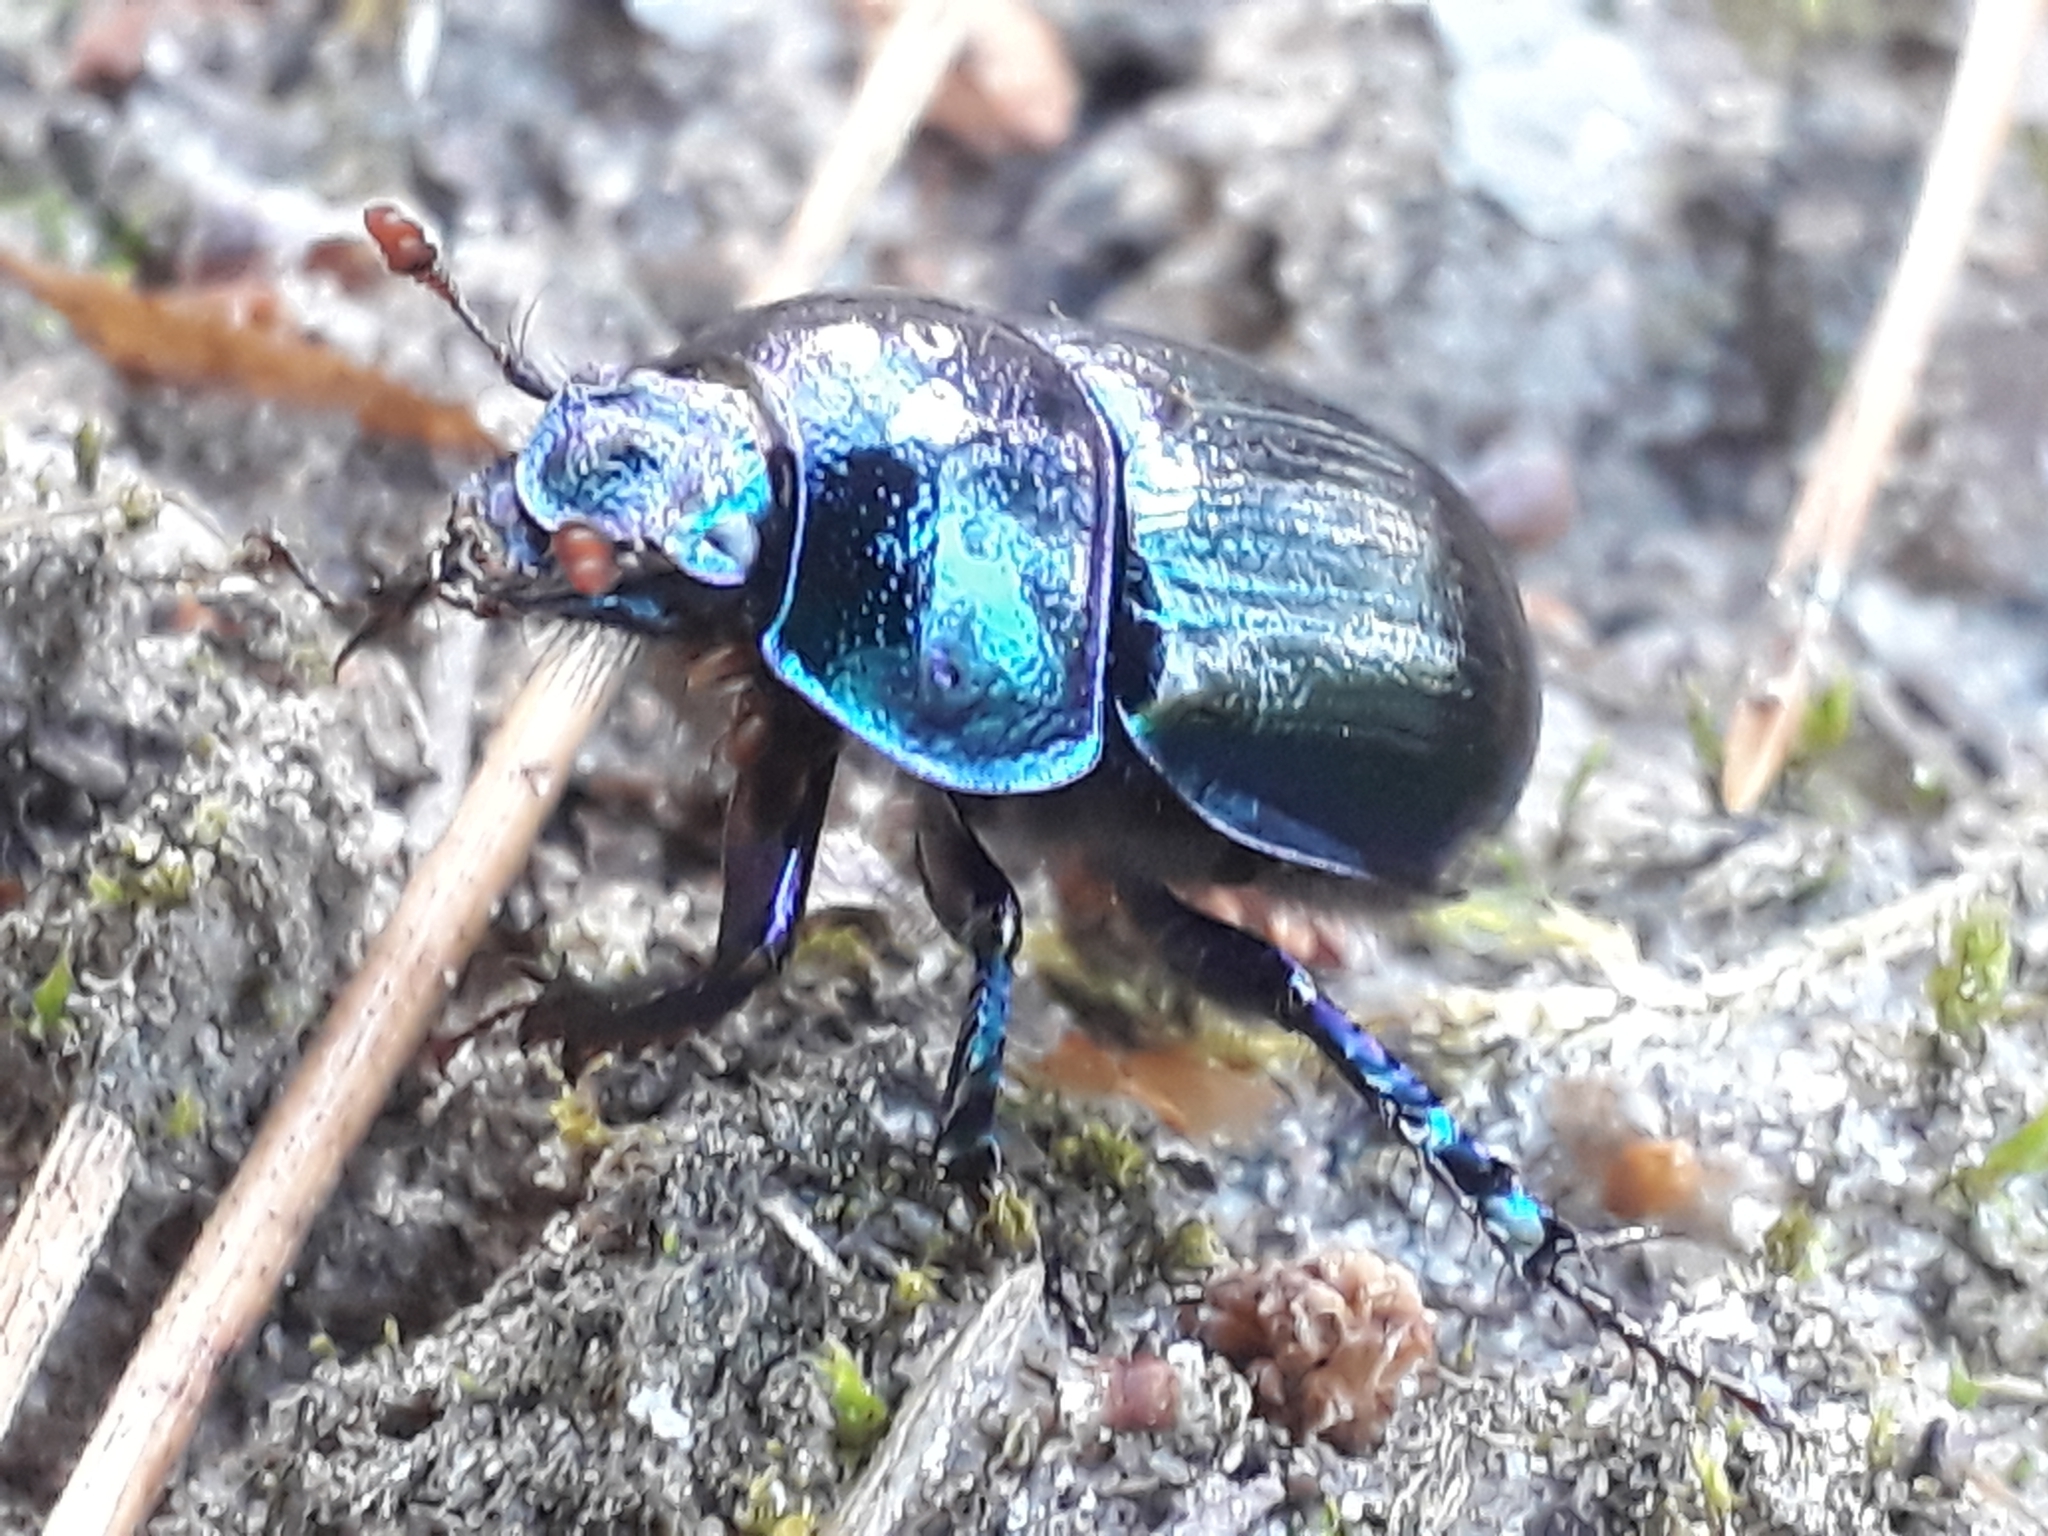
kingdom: Animalia
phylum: Arthropoda
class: Insecta
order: Coleoptera
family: Geotrupidae
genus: Anoplotrupes
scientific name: Anoplotrupes stercorosus
